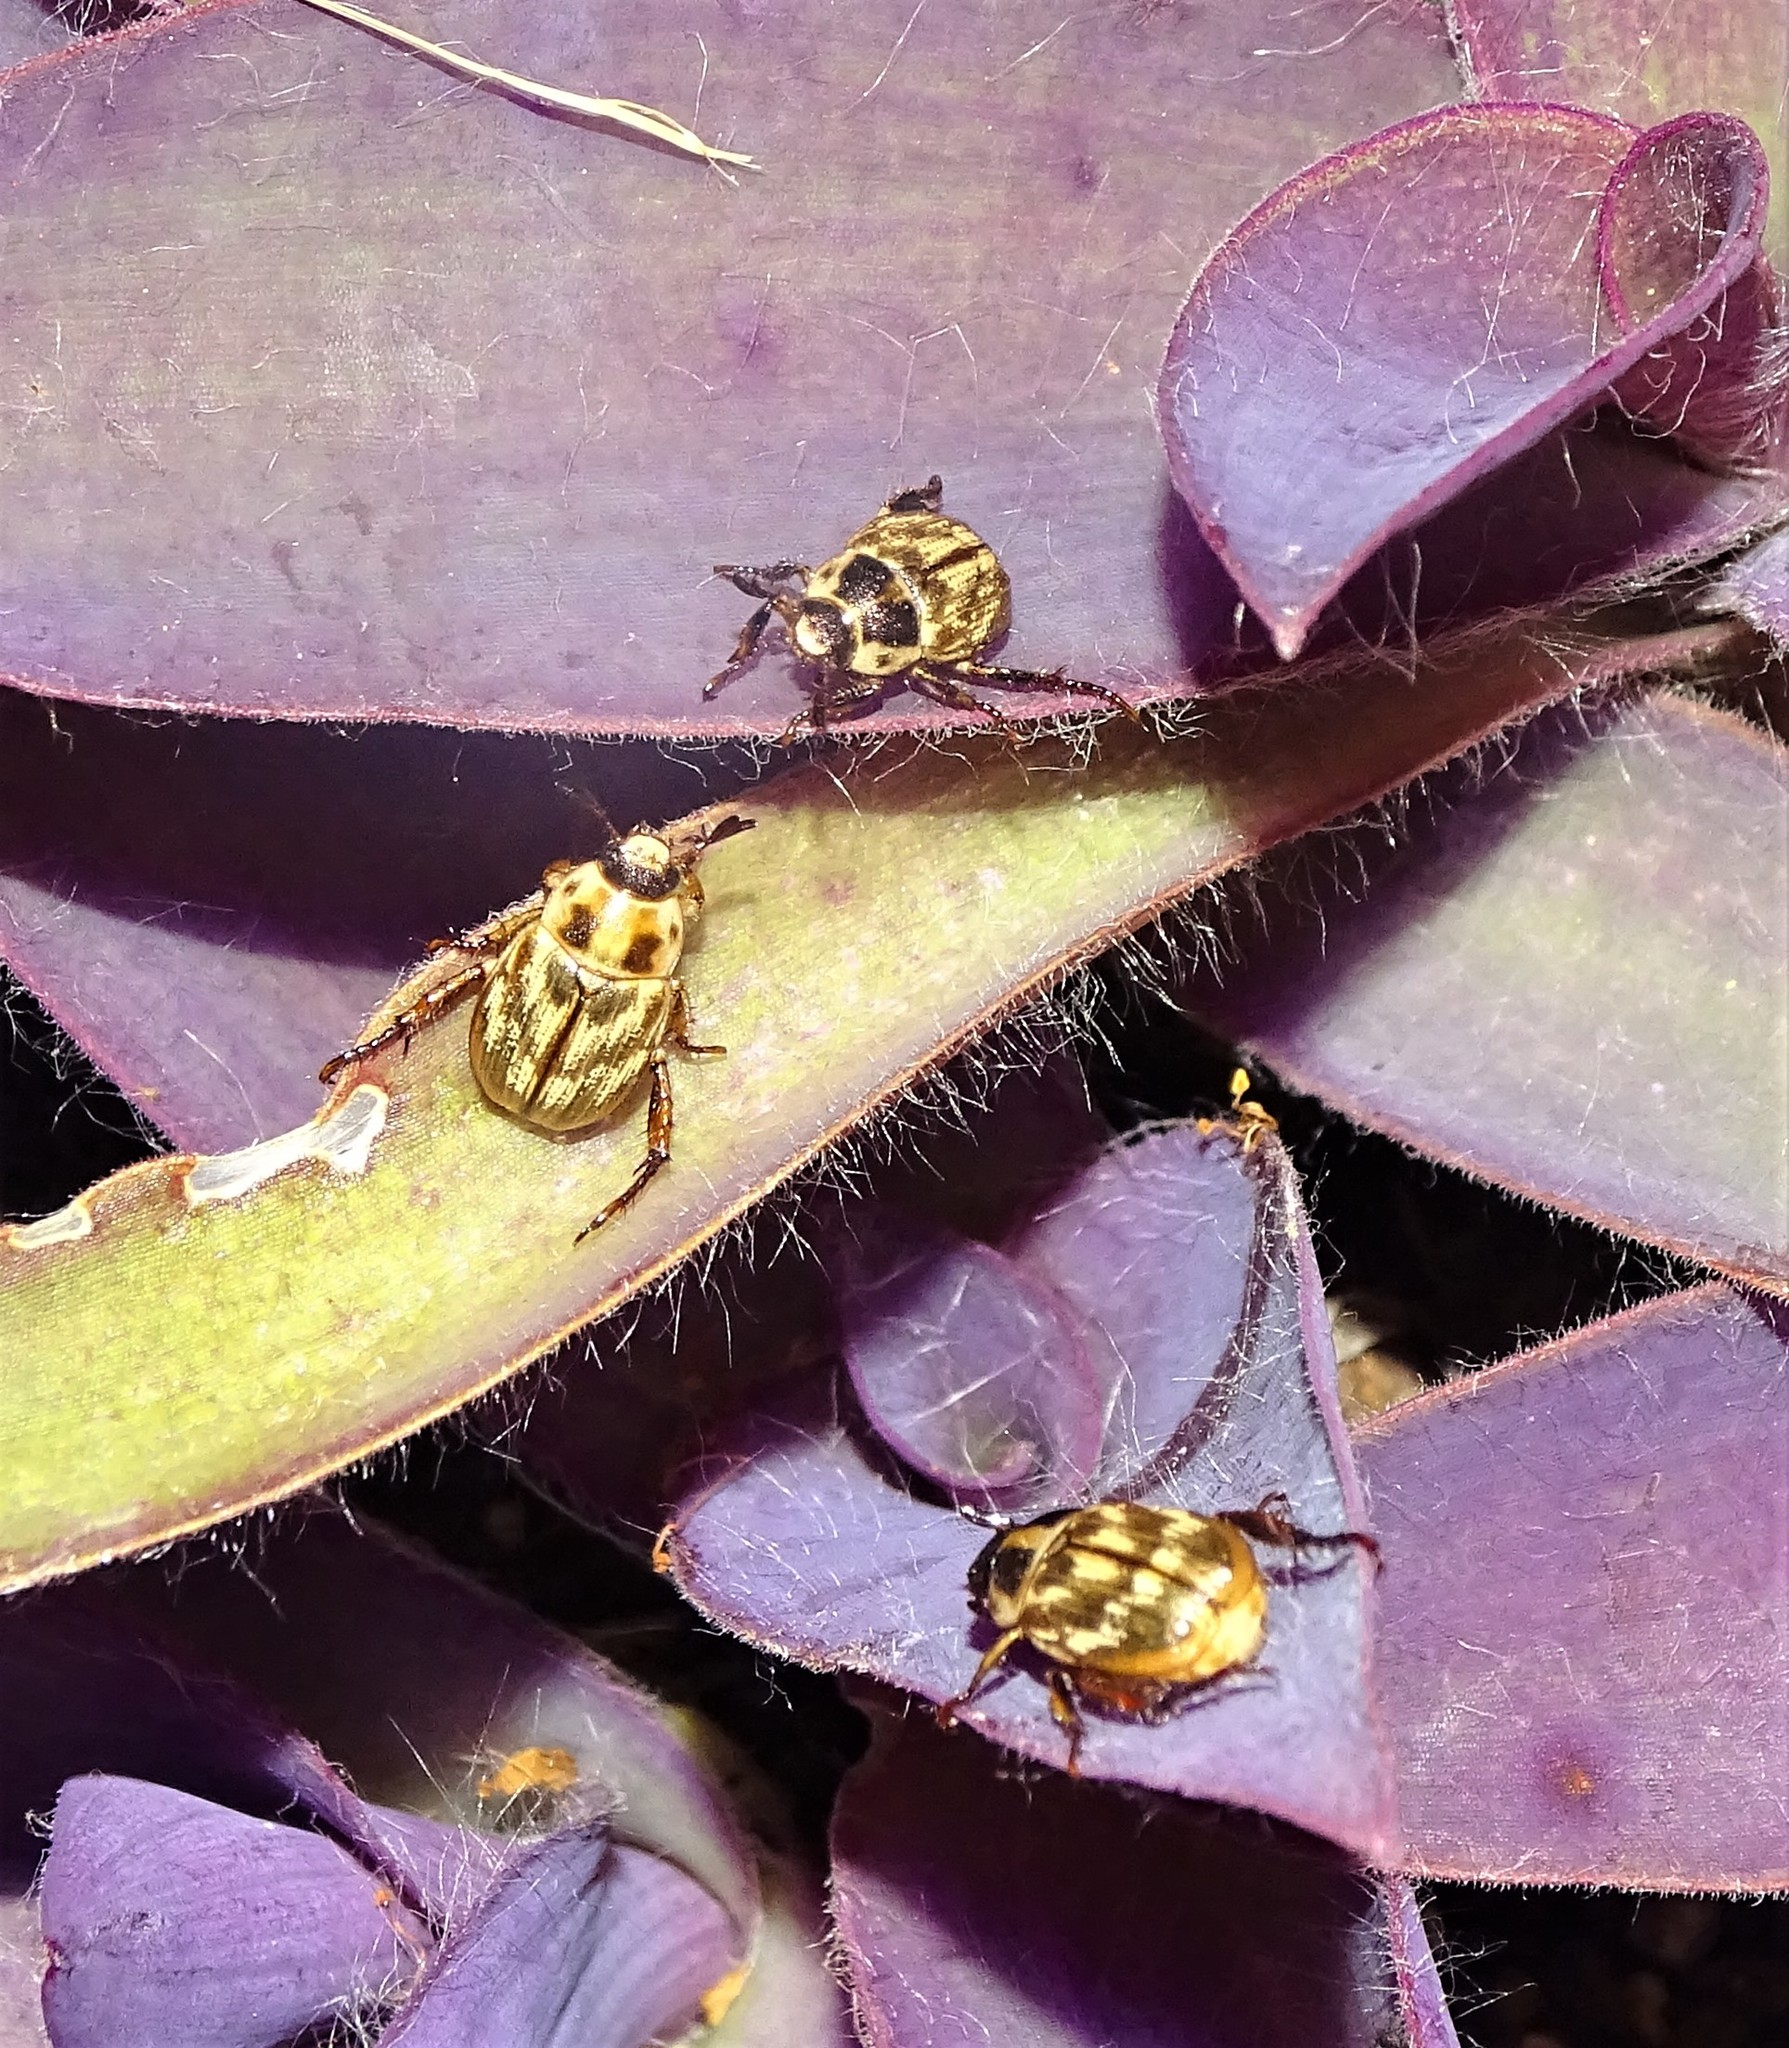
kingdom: Animalia
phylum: Arthropoda
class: Insecta
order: Coleoptera
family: Scarabaeidae
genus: Exomala
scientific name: Exomala orientalis
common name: Oriental beetle
